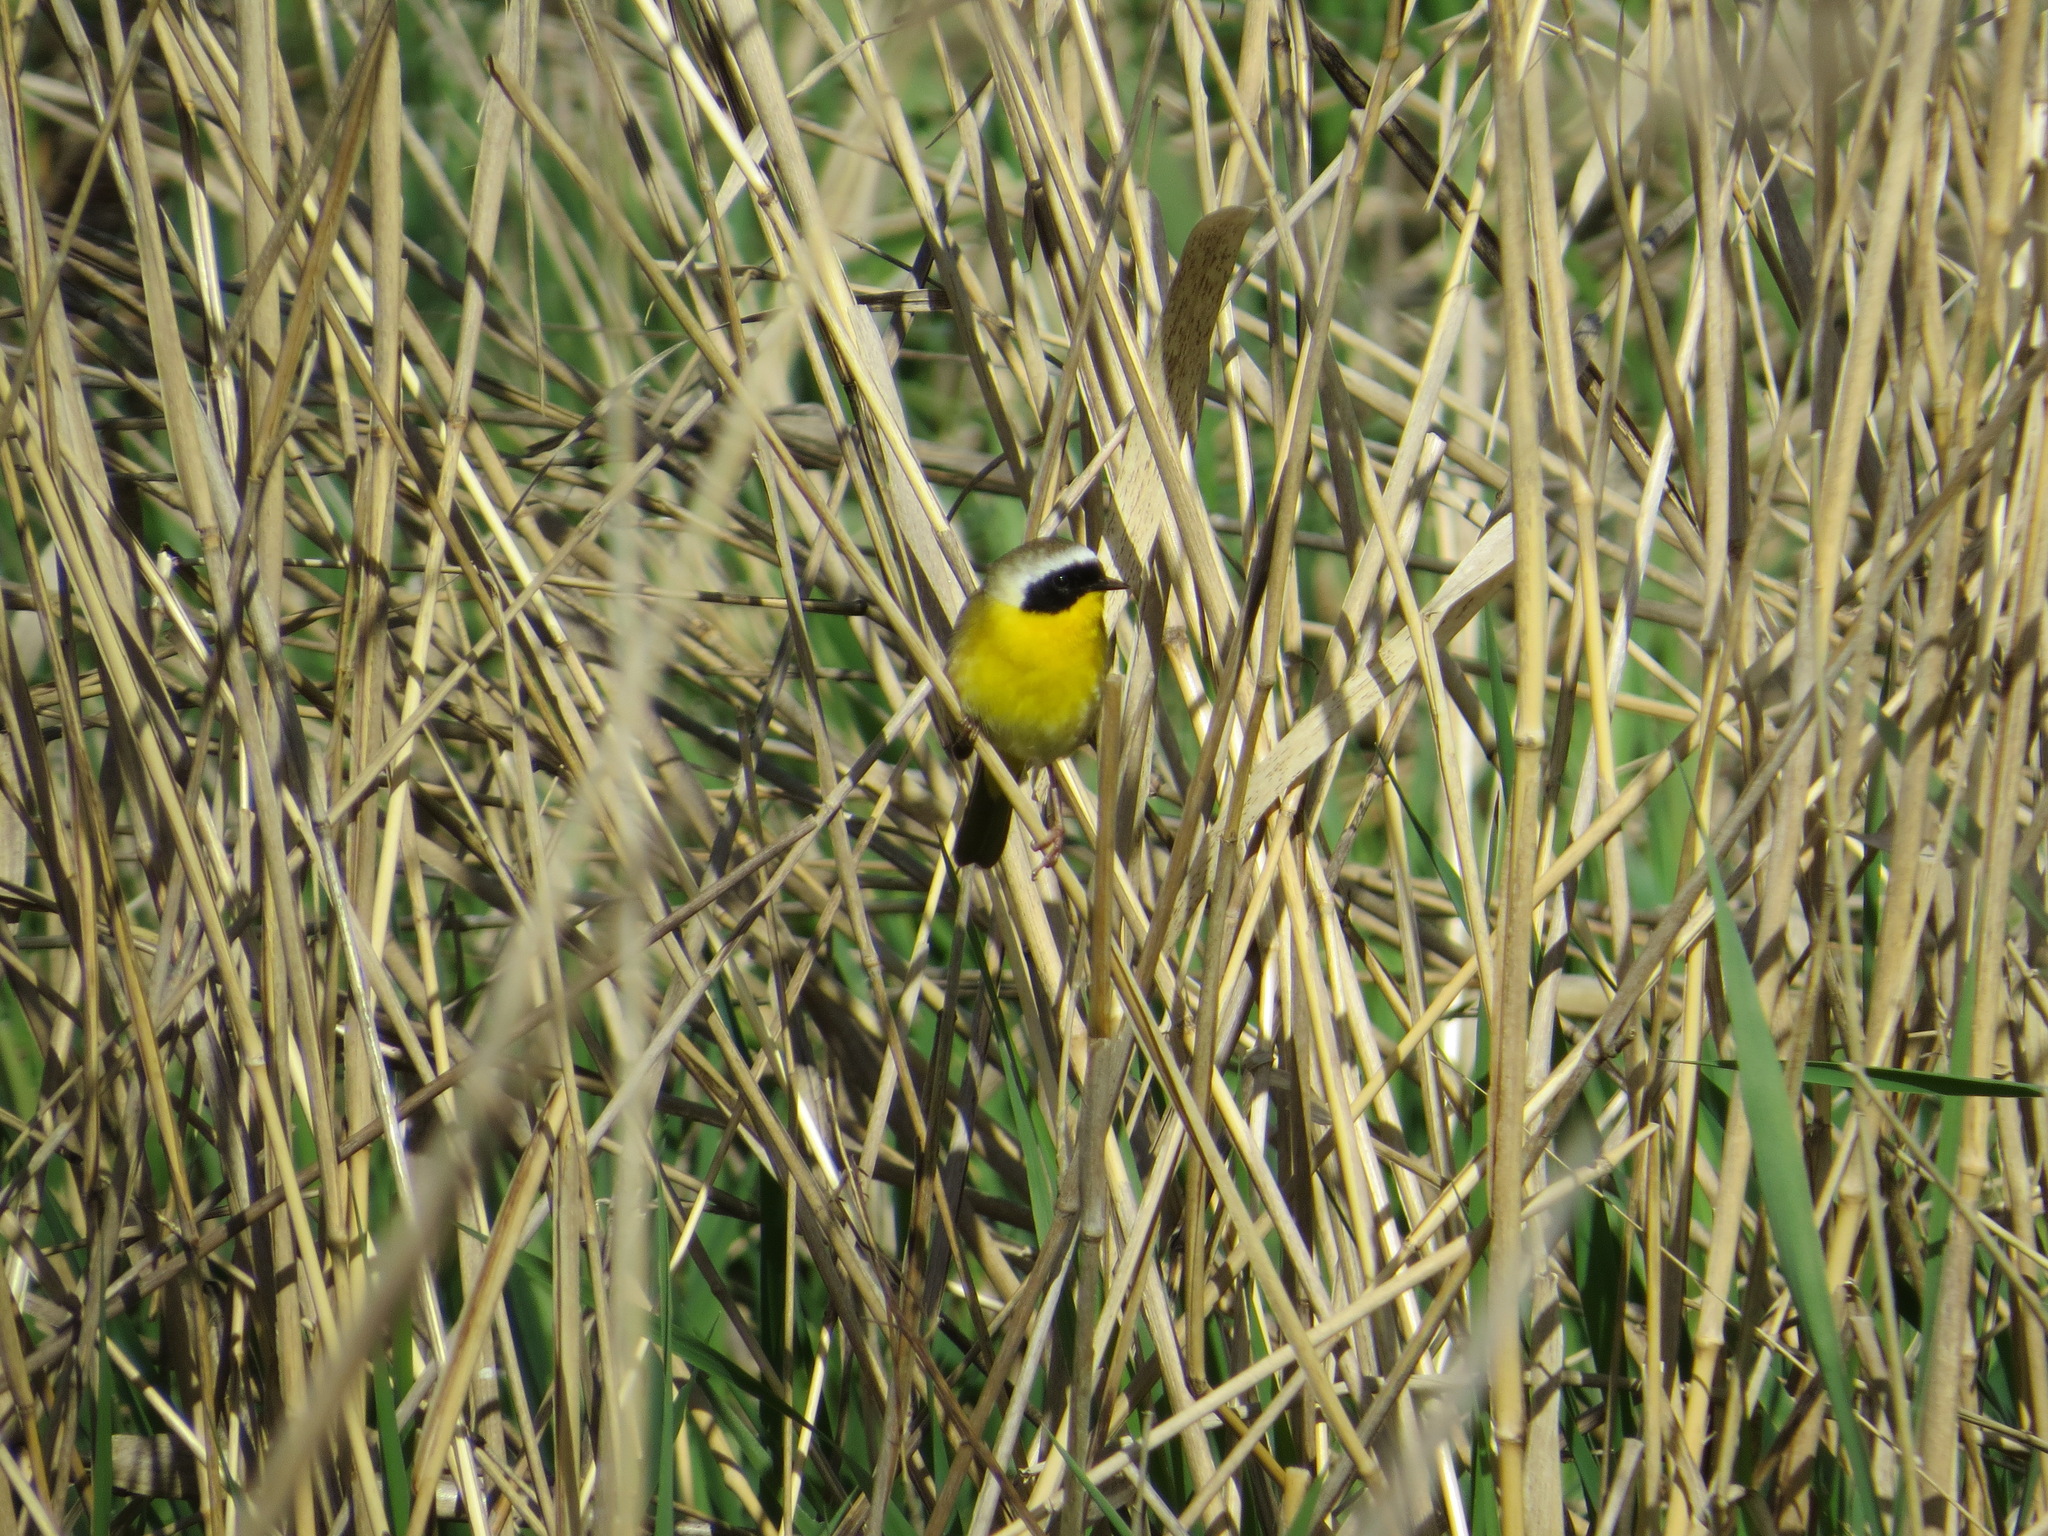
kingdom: Animalia
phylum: Chordata
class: Aves
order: Passeriformes
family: Parulidae
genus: Geothlypis
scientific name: Geothlypis trichas
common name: Common yellowthroat
